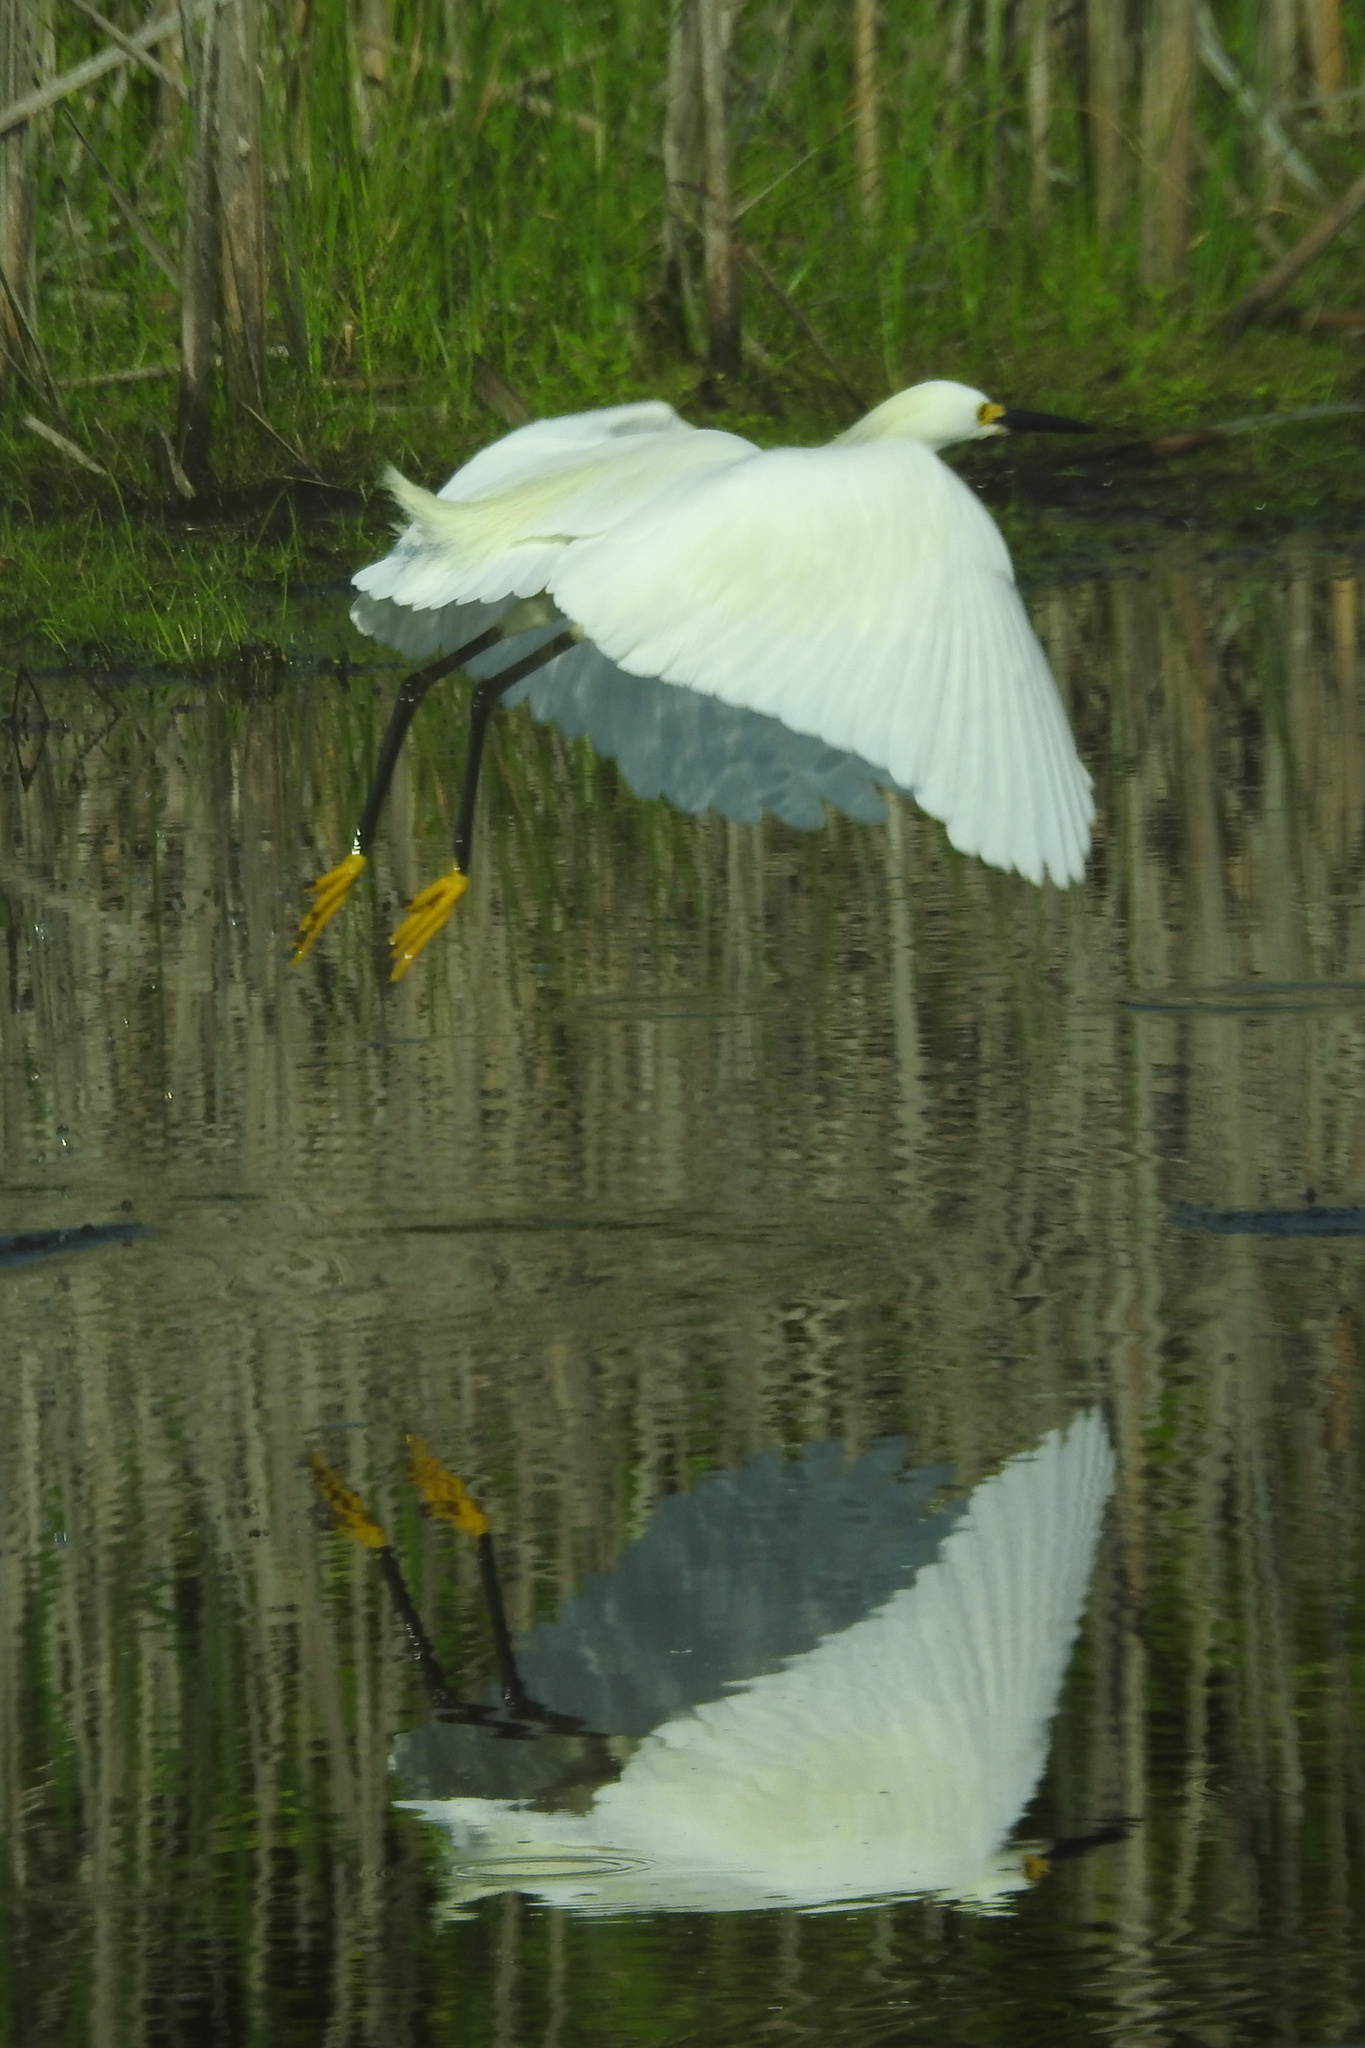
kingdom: Animalia
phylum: Chordata
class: Aves
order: Pelecaniformes
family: Ardeidae
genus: Egretta
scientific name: Egretta thula
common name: Snowy egret
